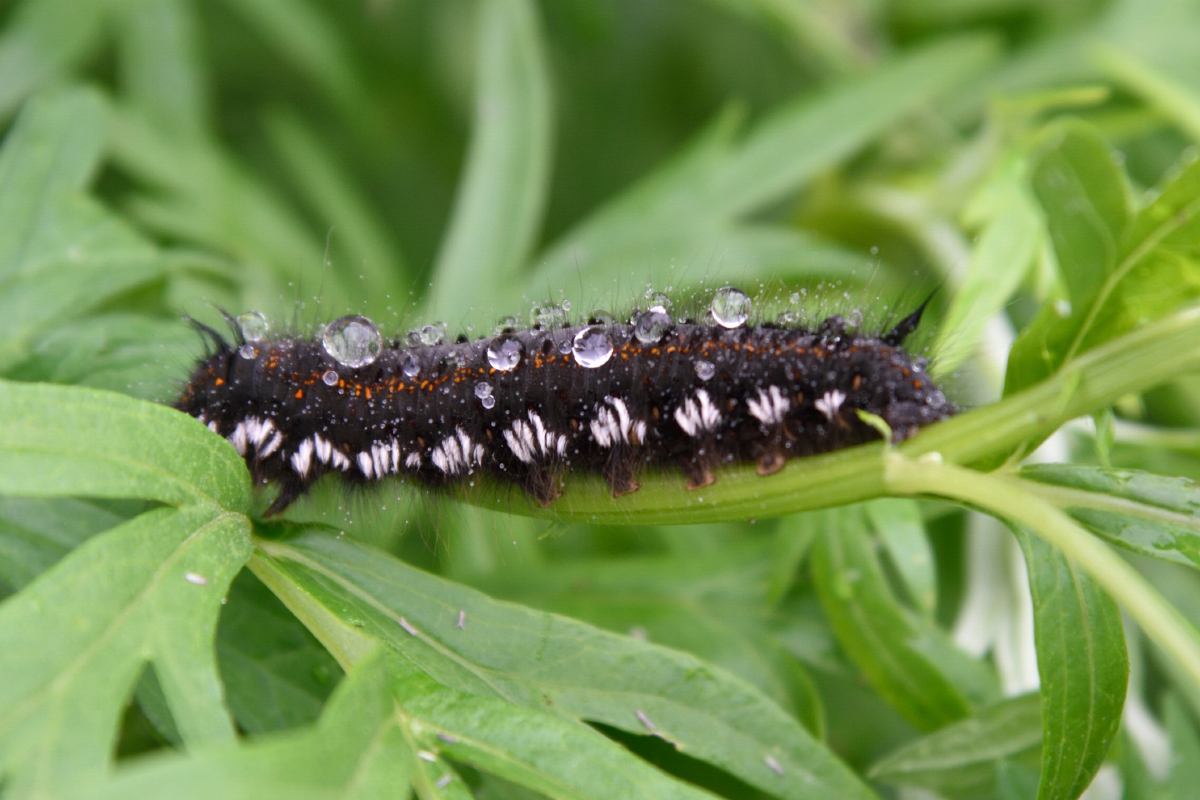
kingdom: Animalia
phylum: Arthropoda
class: Insecta
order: Lepidoptera
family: Lasiocampidae
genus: Euthrix
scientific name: Euthrix potatoria
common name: Drinker
